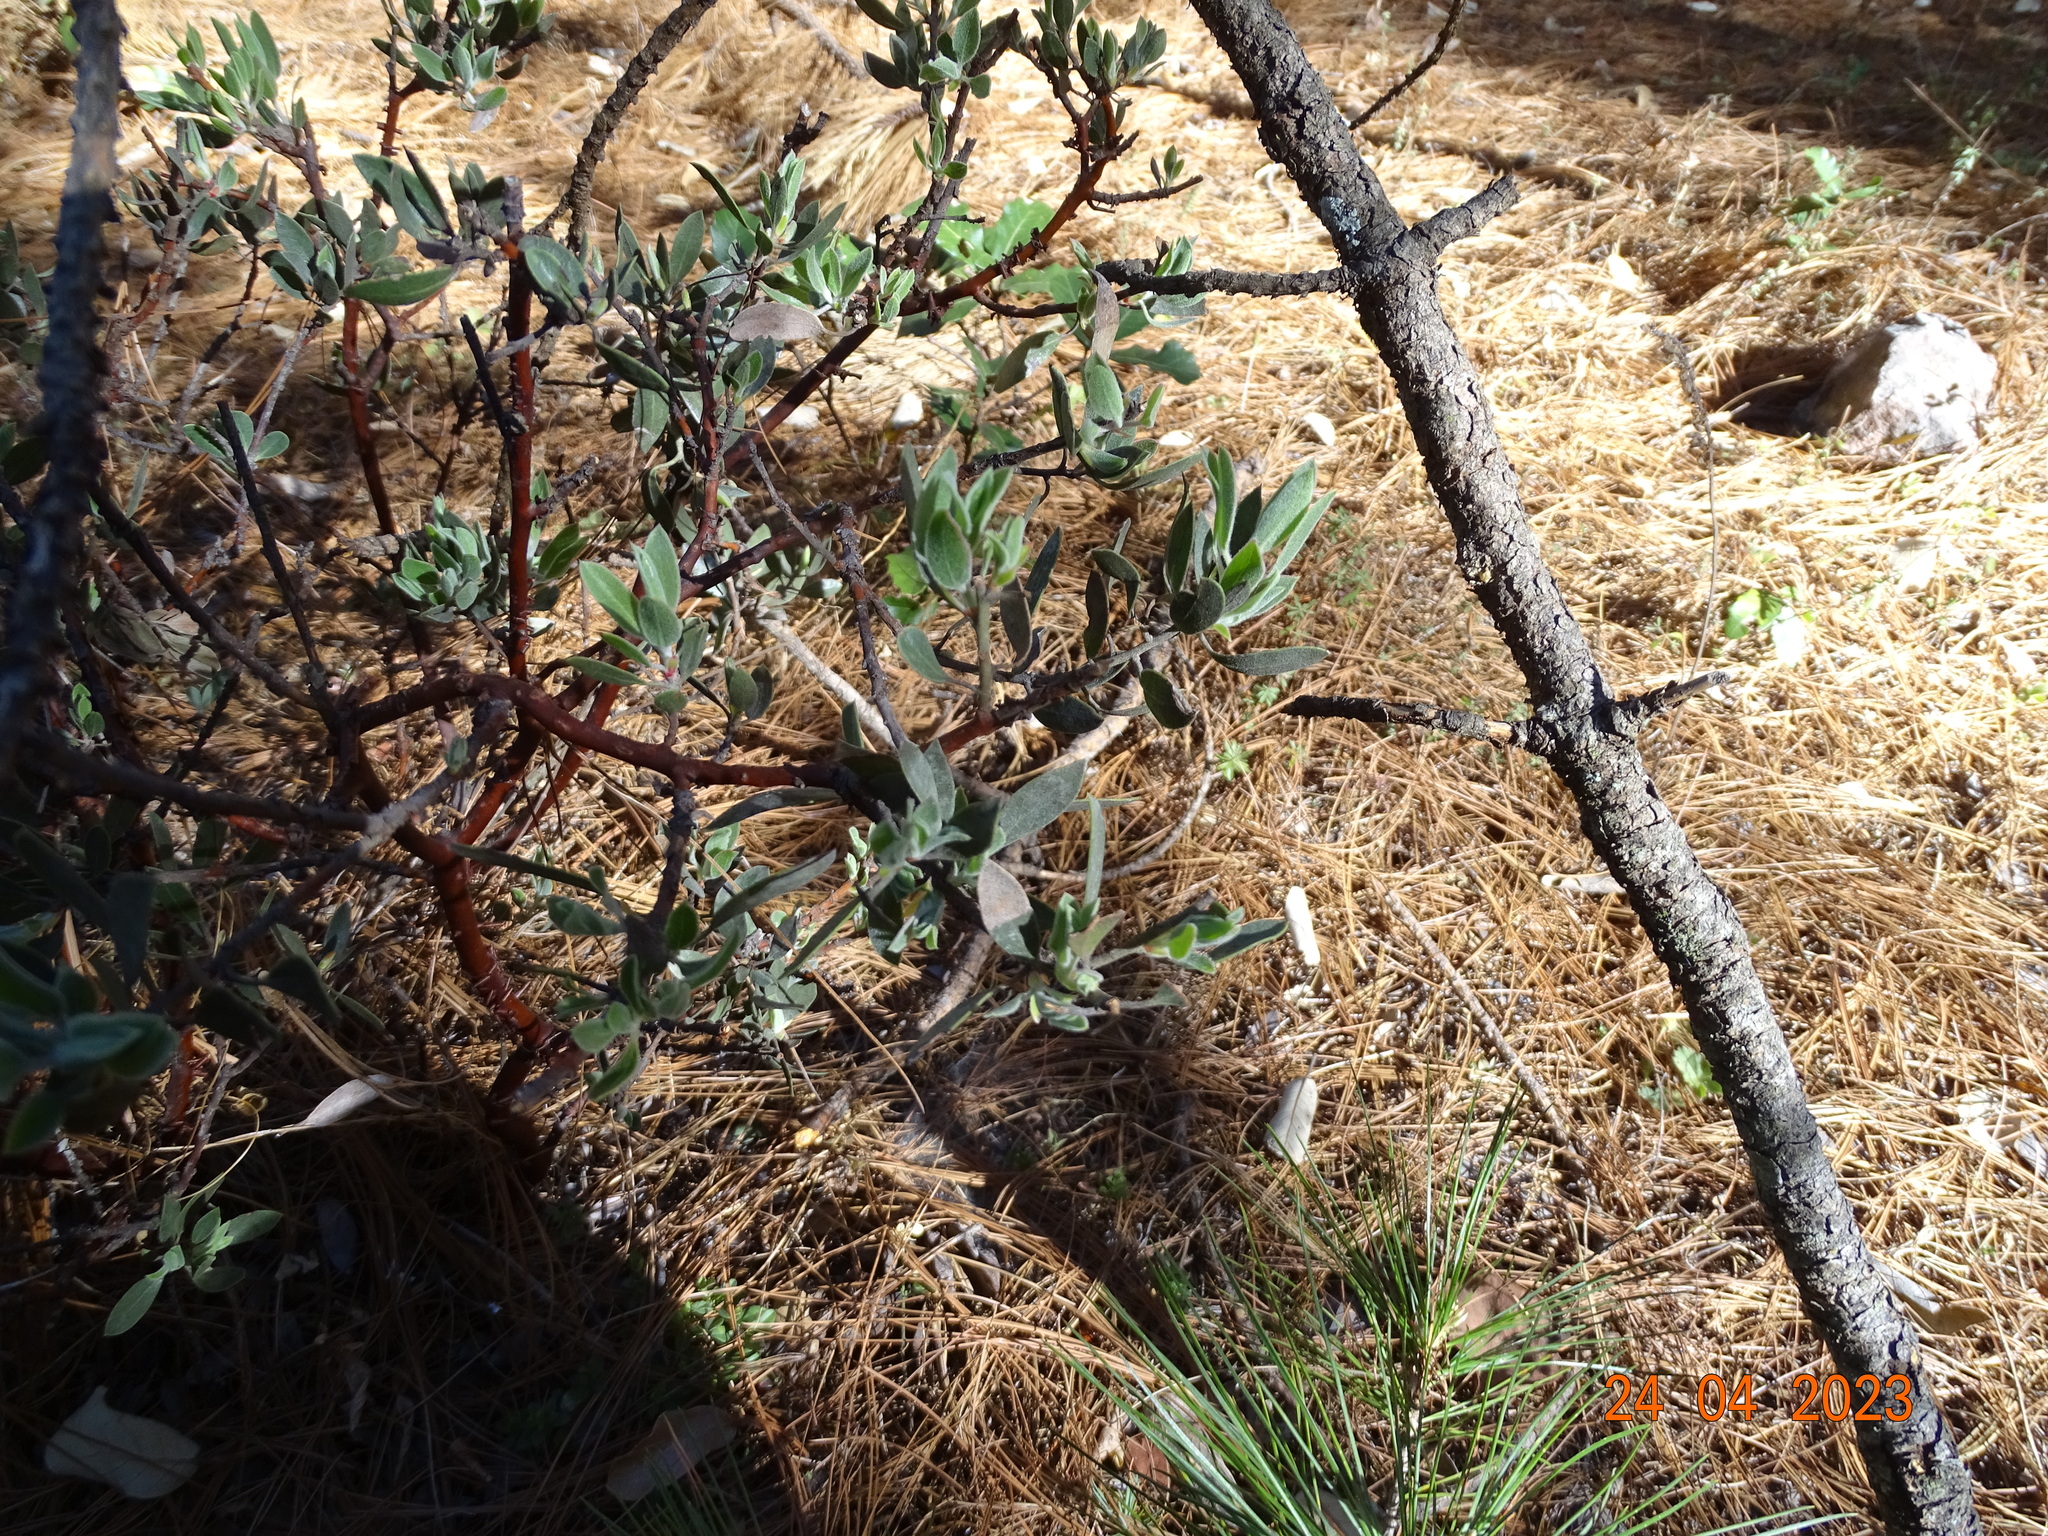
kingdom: Plantae
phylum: Tracheophyta
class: Magnoliopsida
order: Ericales
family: Ericaceae
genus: Arctostaphylos
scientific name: Arctostaphylos pungens
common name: Mexican manzanita
